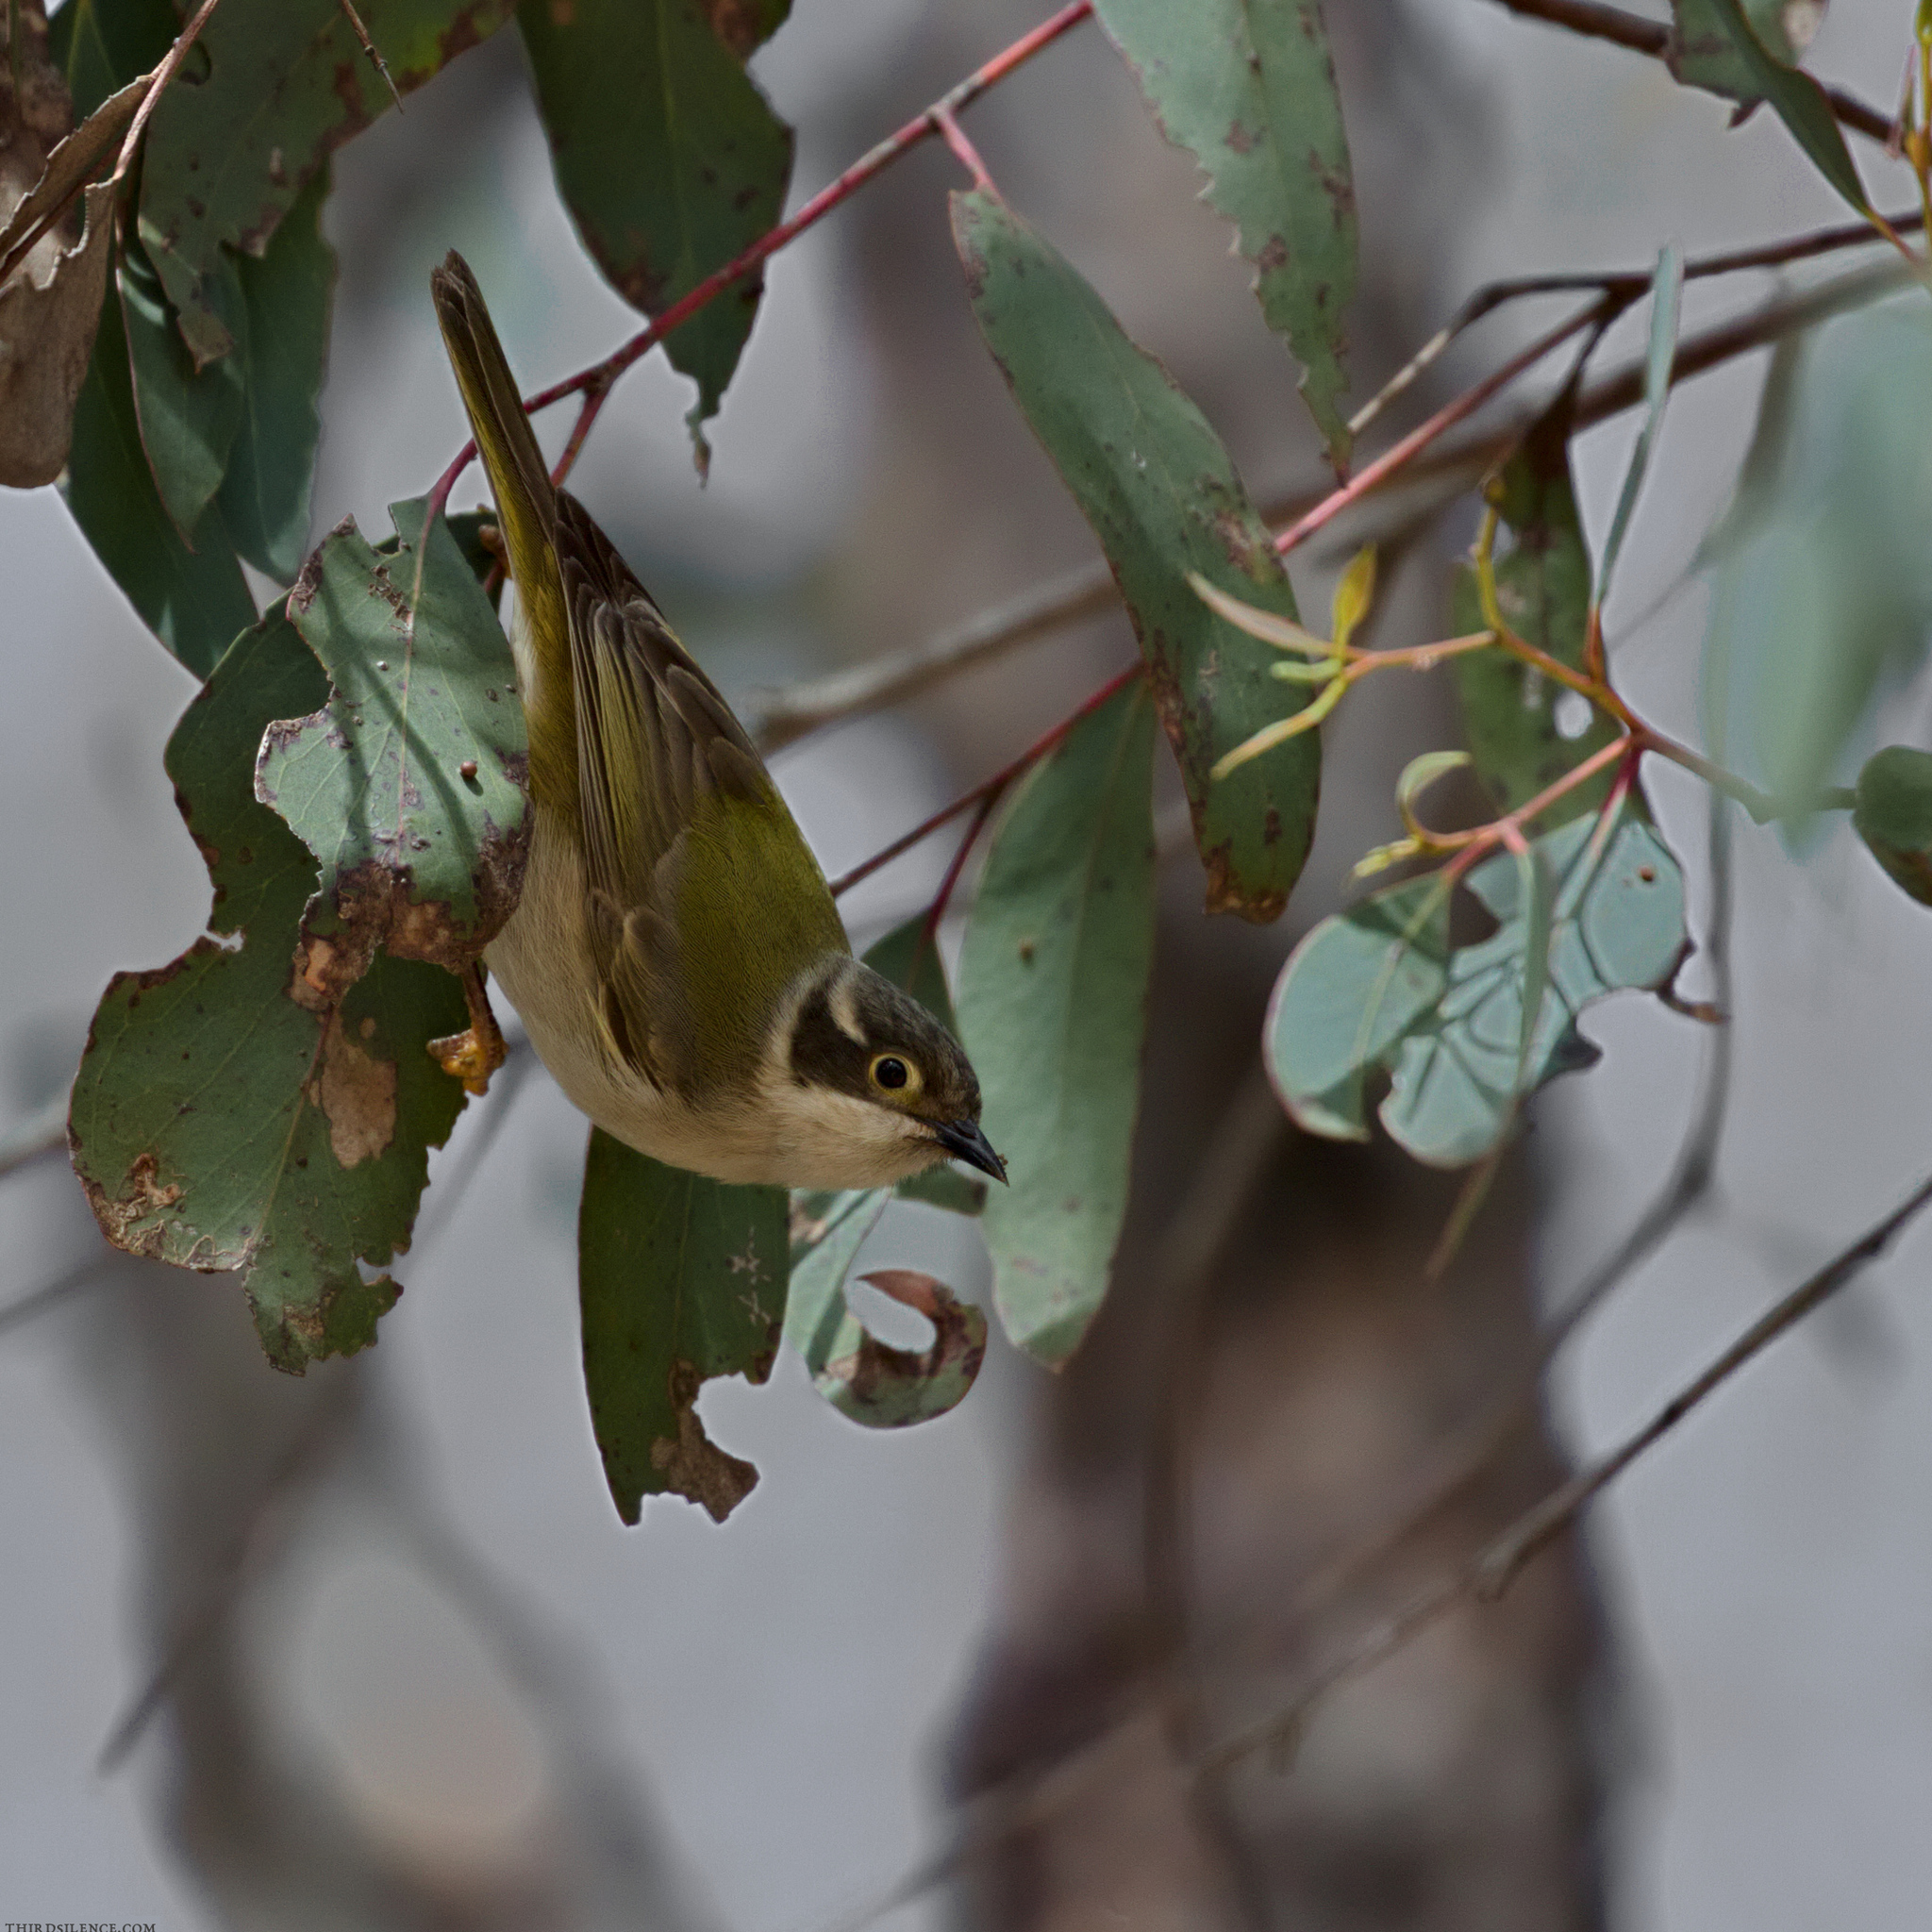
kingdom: Animalia
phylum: Chordata
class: Aves
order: Passeriformes
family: Meliphagidae
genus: Melithreptus
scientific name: Melithreptus brevirostris
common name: Brown-headed honeyeater
